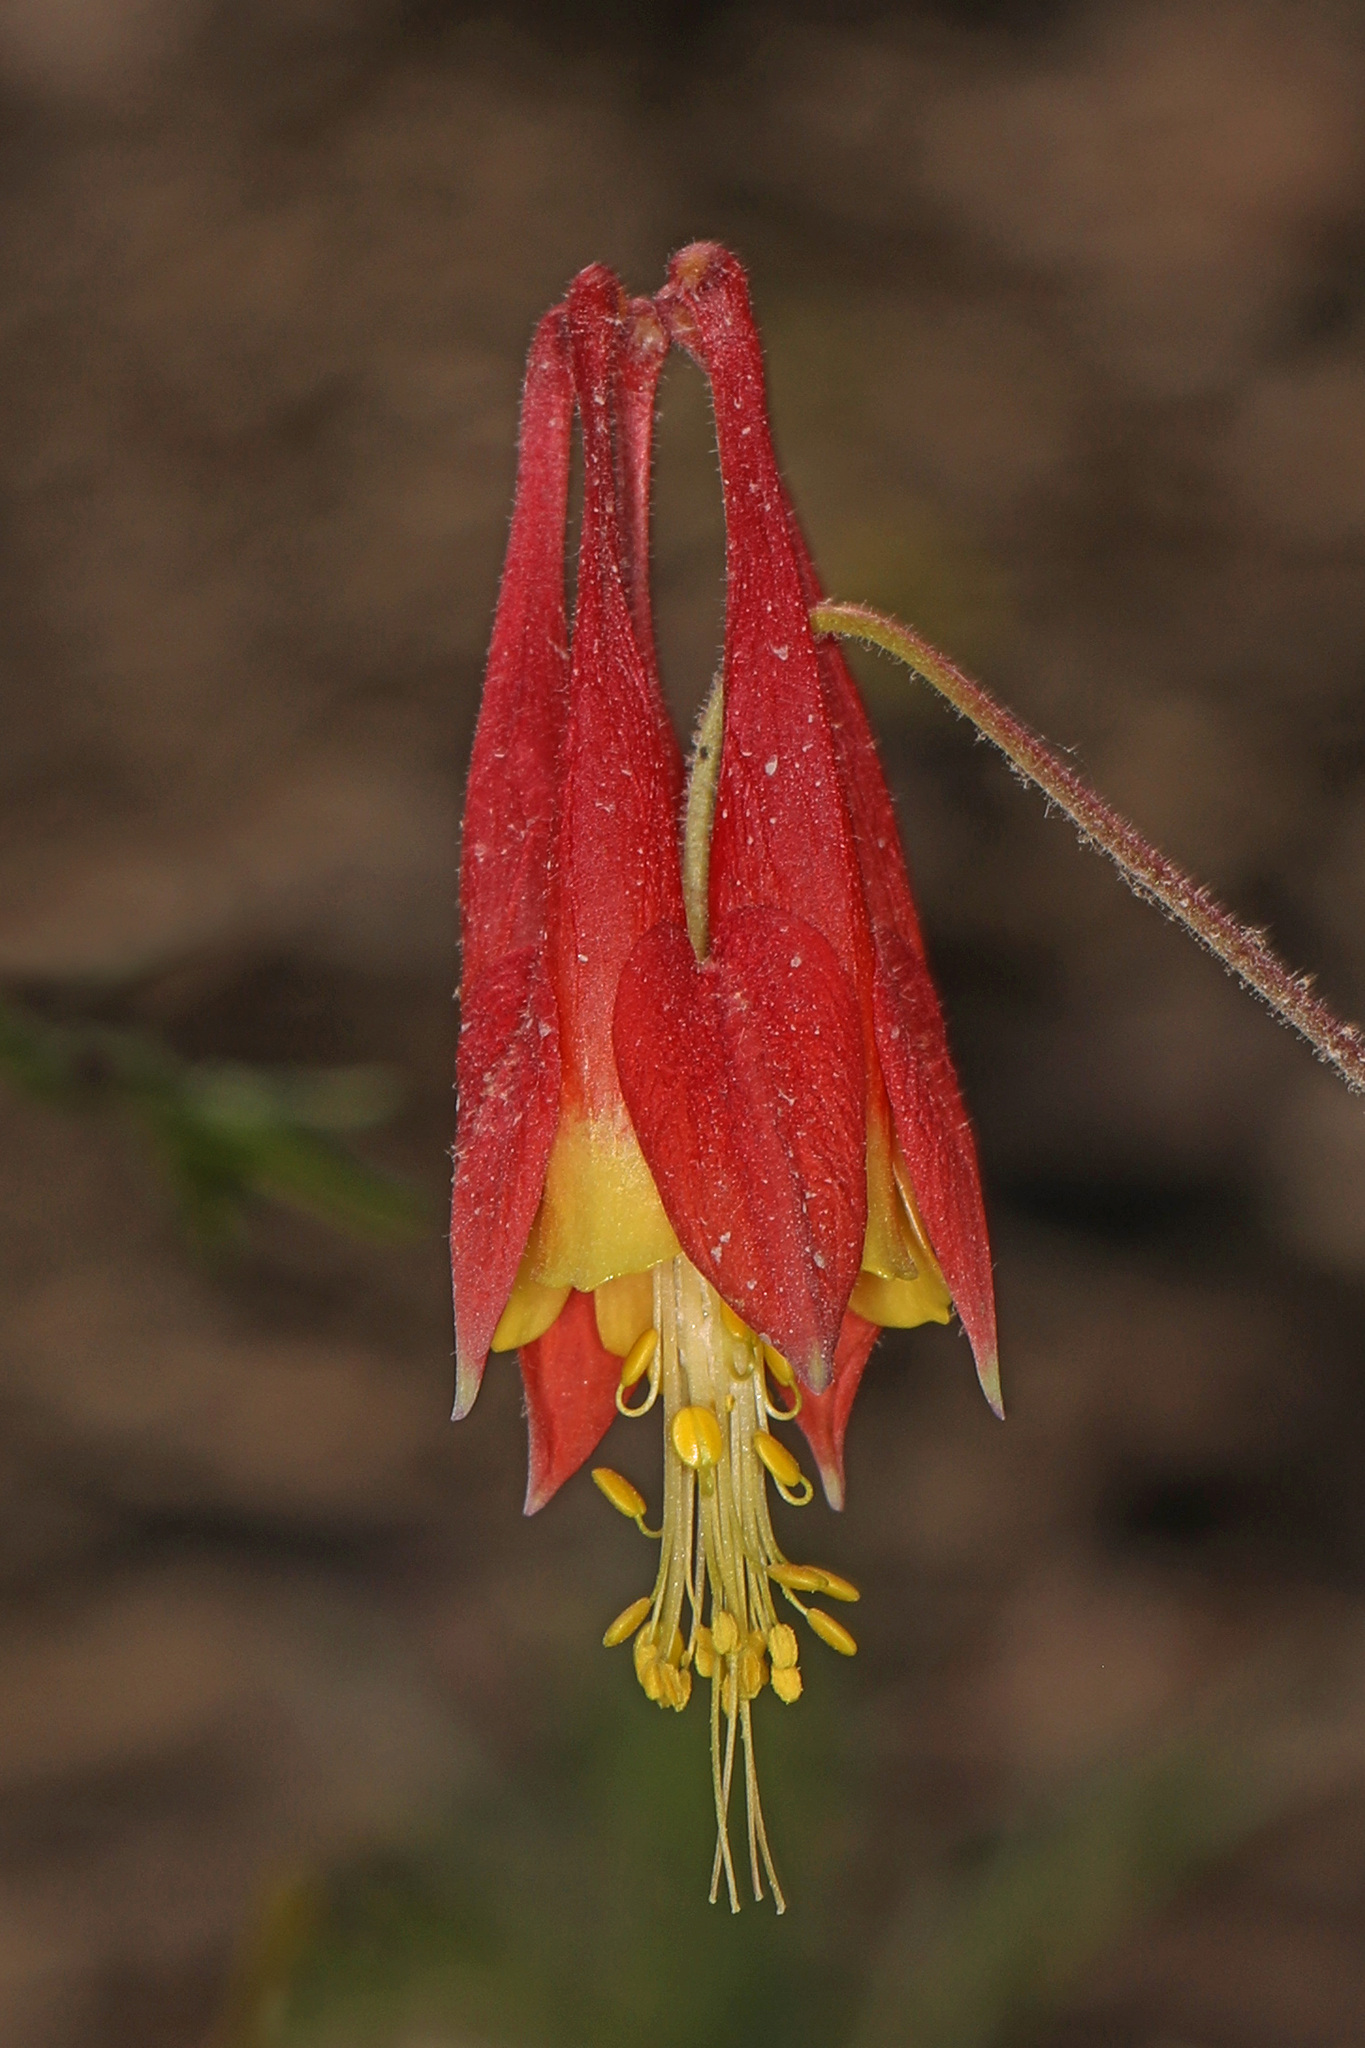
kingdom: Plantae
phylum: Tracheophyta
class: Magnoliopsida
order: Ranunculales
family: Ranunculaceae
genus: Aquilegia
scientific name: Aquilegia canadensis
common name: American columbine
